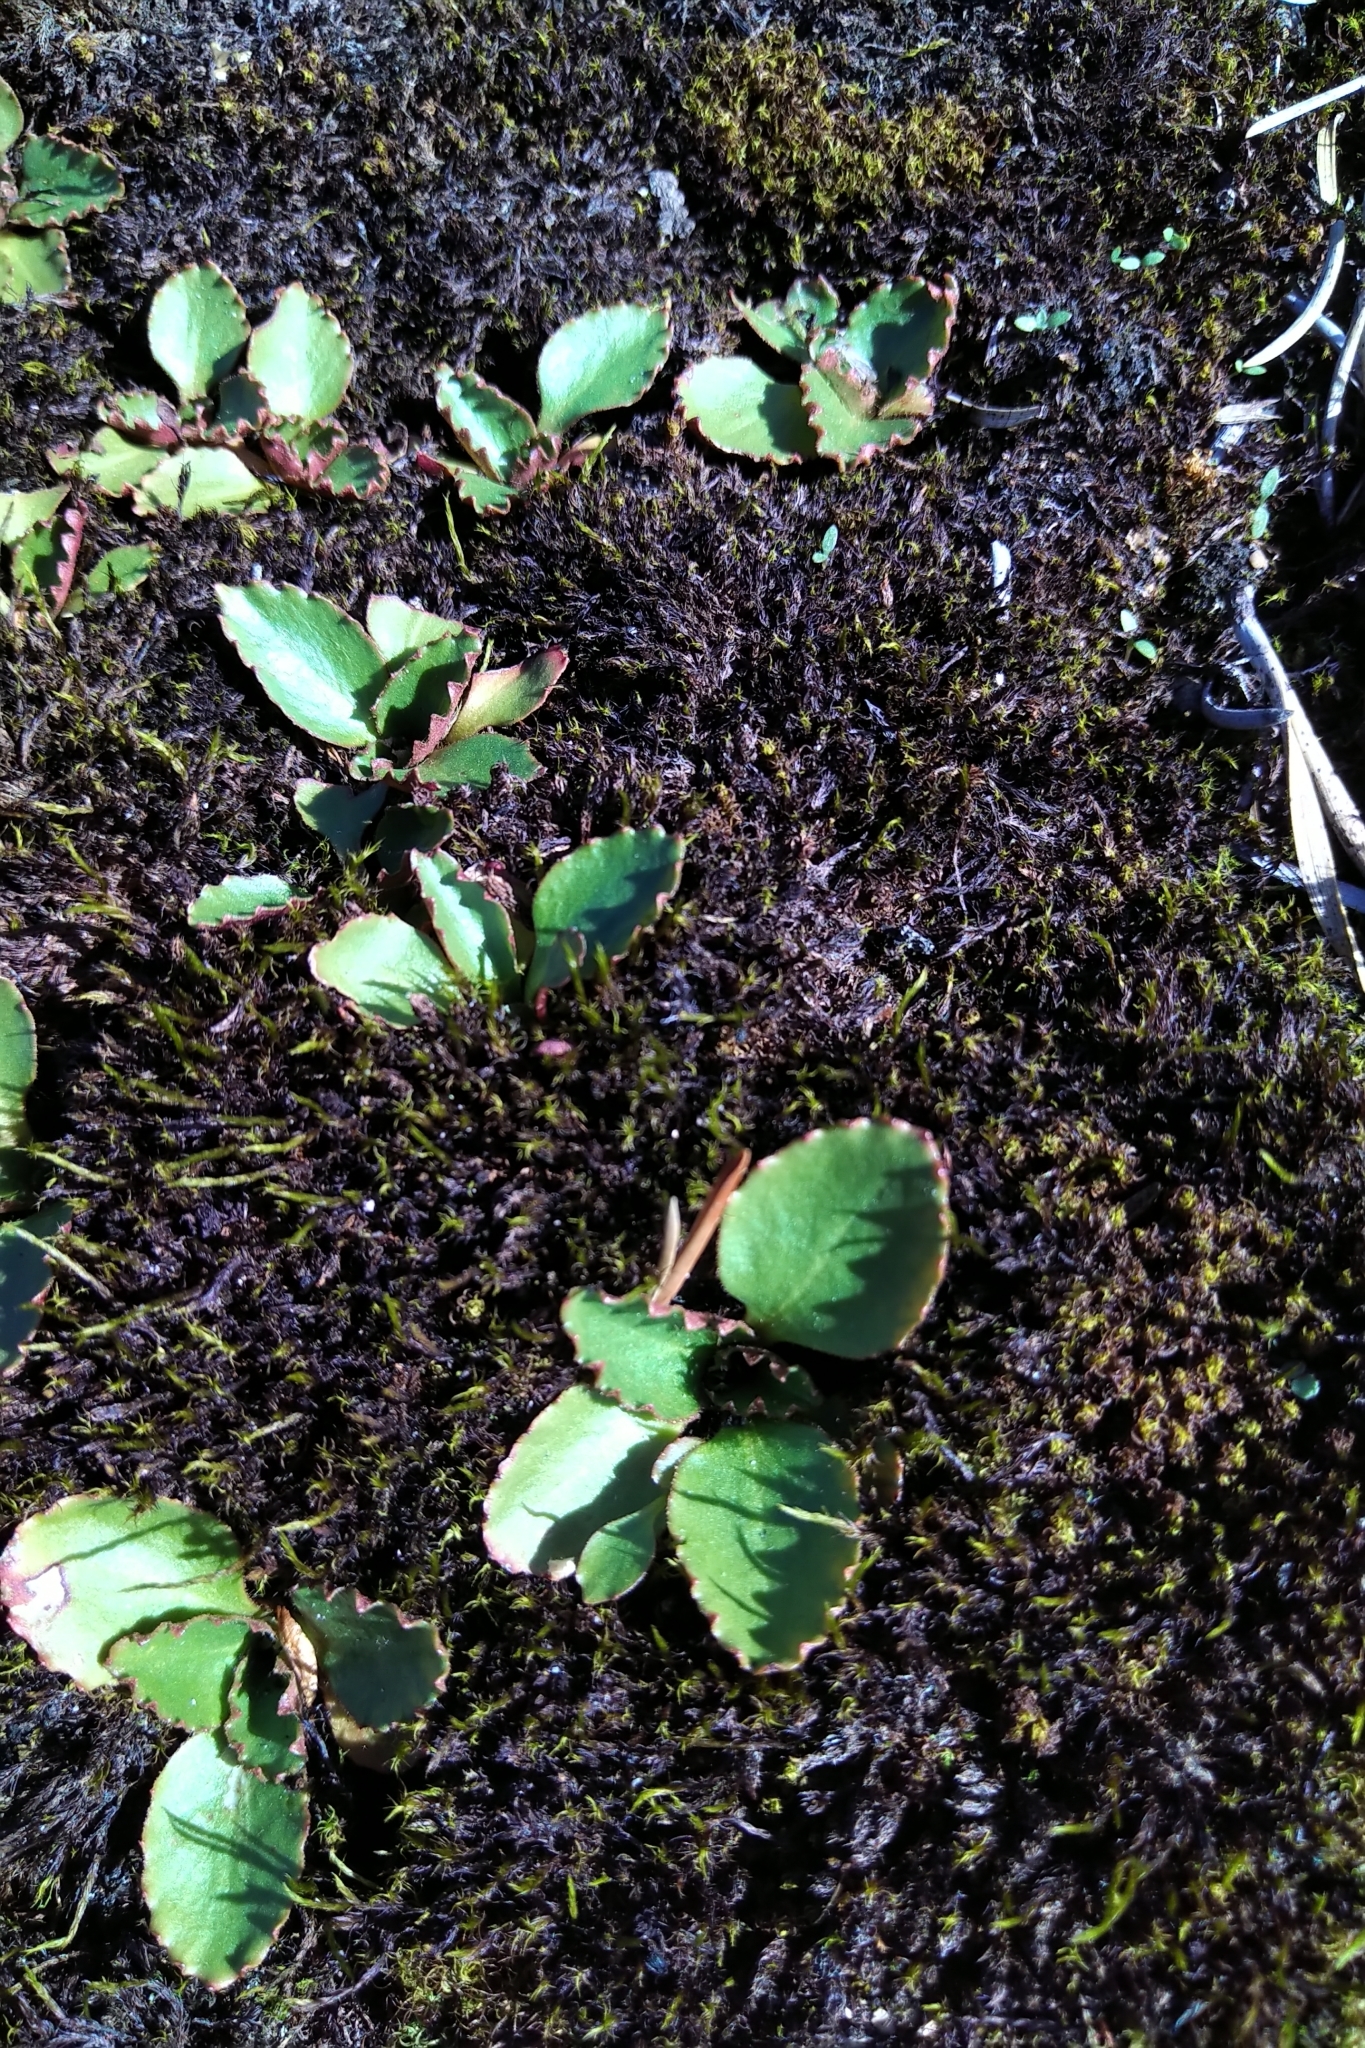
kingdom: Plantae
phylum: Tracheophyta
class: Magnoliopsida
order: Saxifragales
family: Saxifragaceae
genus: Micranthes
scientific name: Micranthes virginiensis
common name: Early saxifrage
